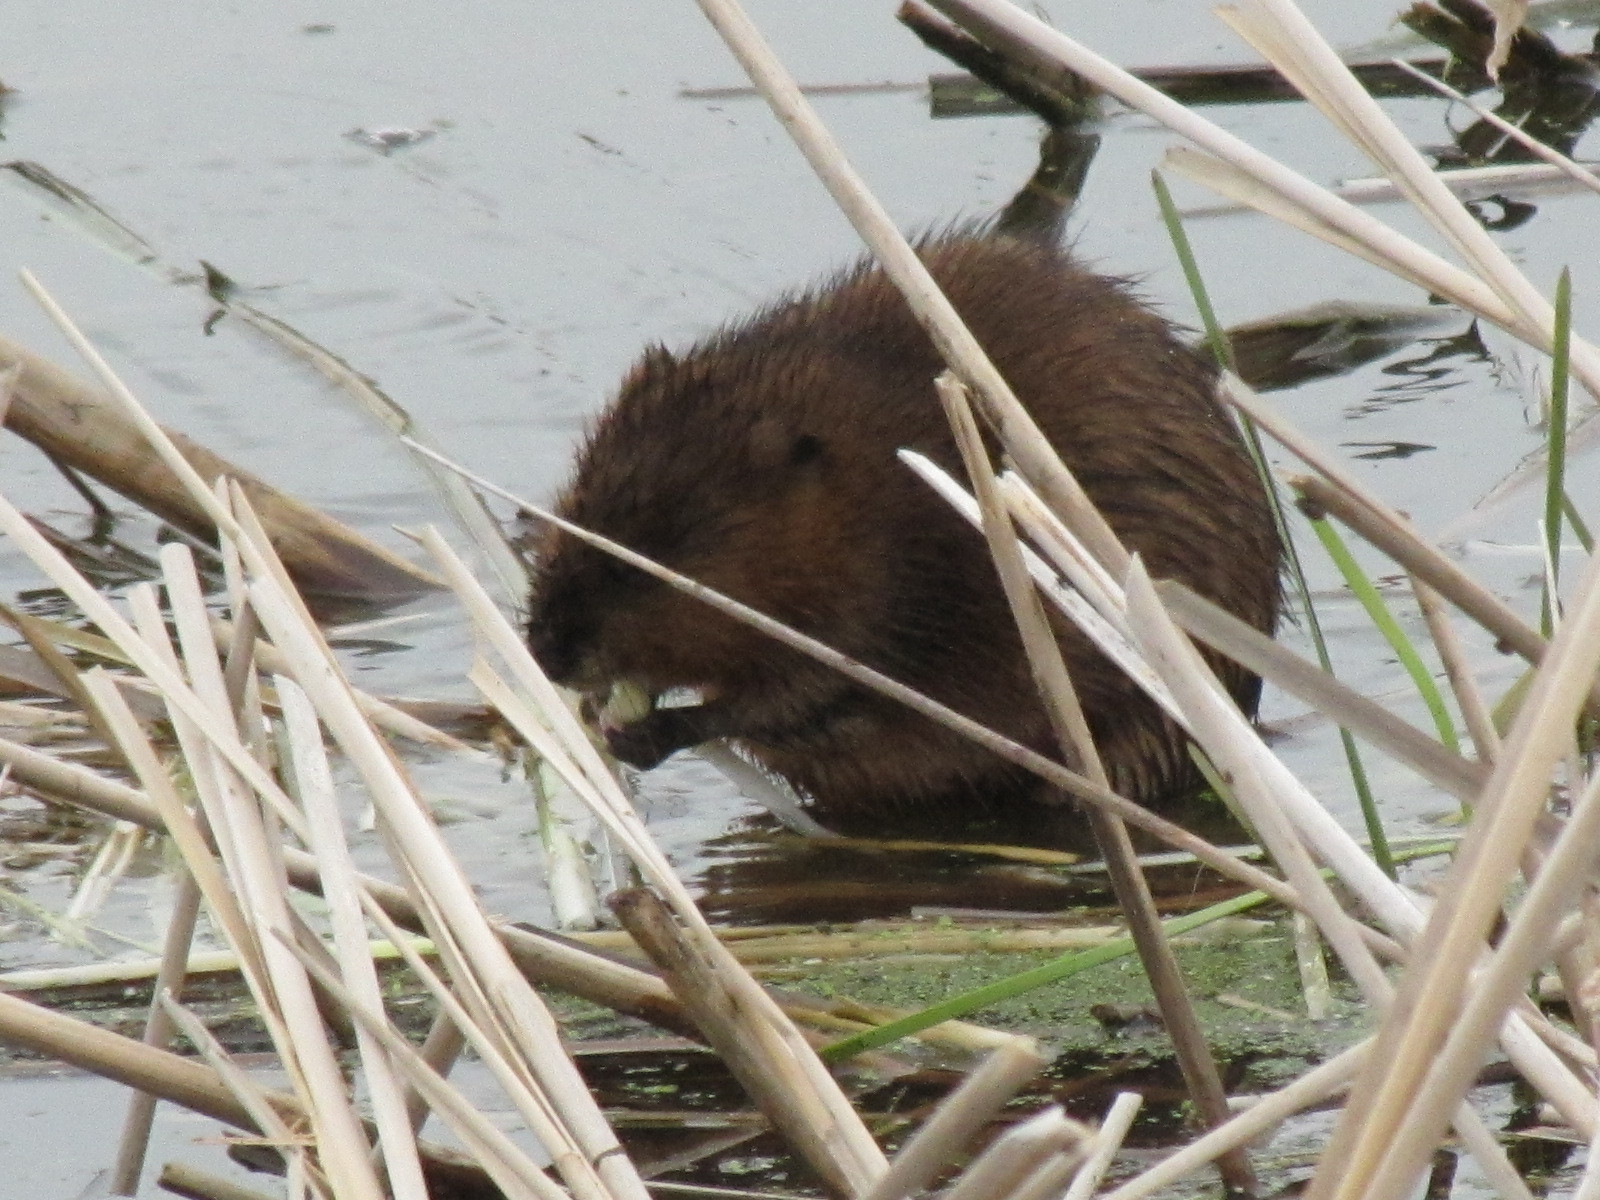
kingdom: Animalia
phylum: Chordata
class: Mammalia
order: Rodentia
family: Cricetidae
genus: Ondatra
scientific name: Ondatra zibethicus
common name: Muskrat
